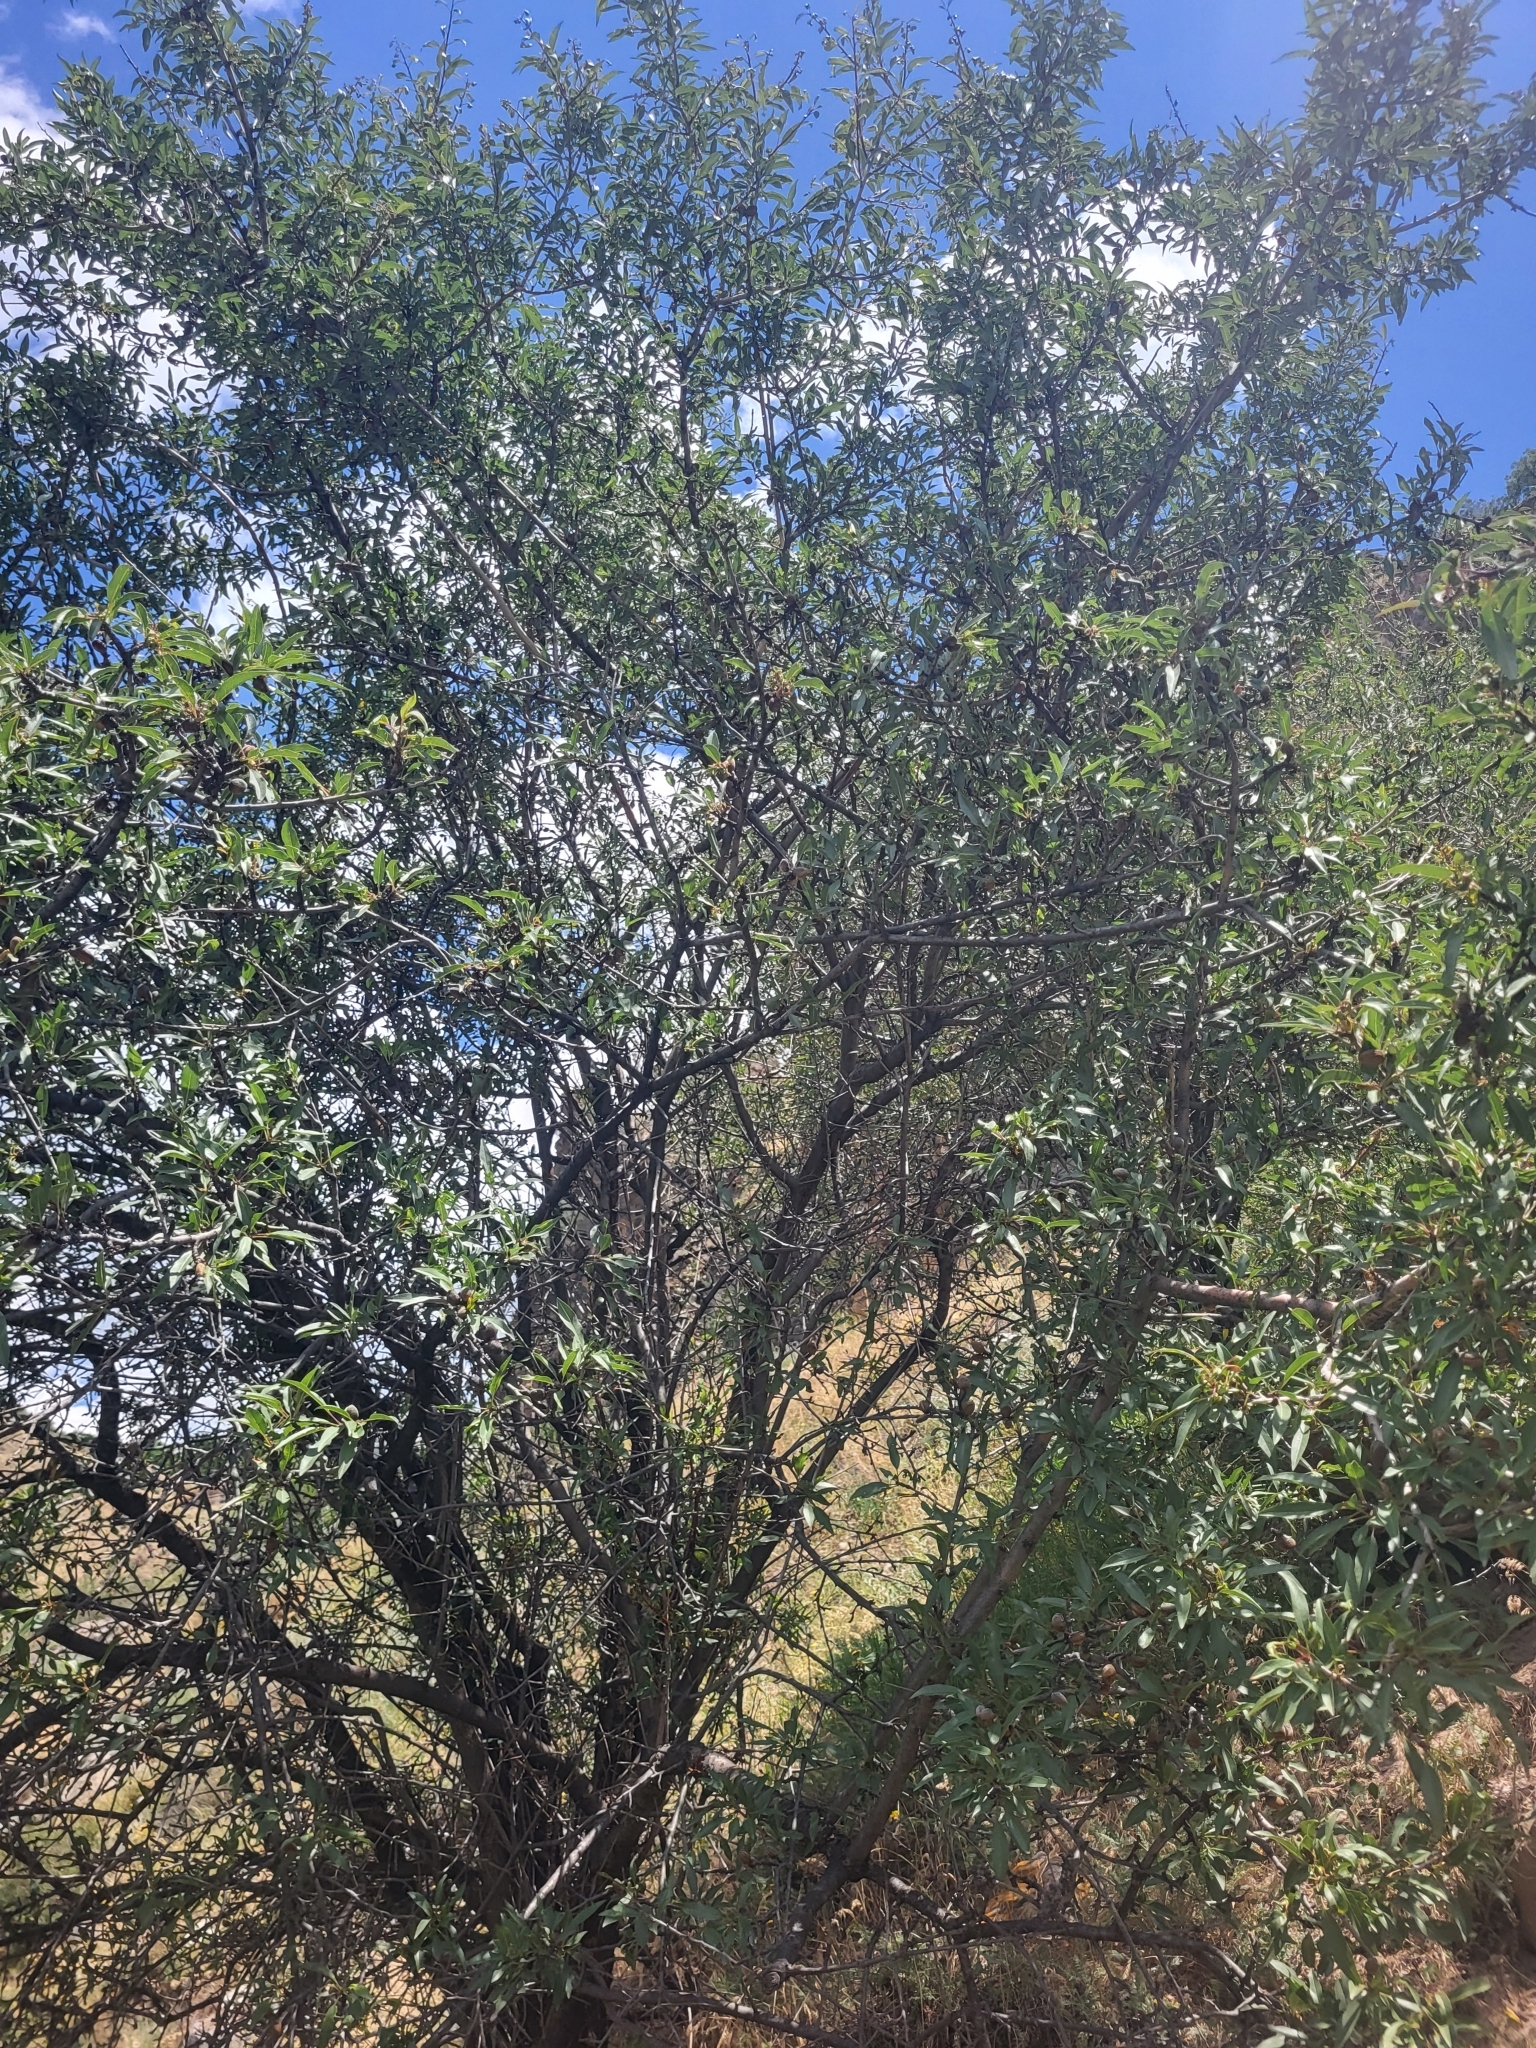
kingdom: Plantae
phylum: Tracheophyta
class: Magnoliopsida
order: Rosales
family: Rosaceae
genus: Prunus
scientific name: Prunus amygdalus
